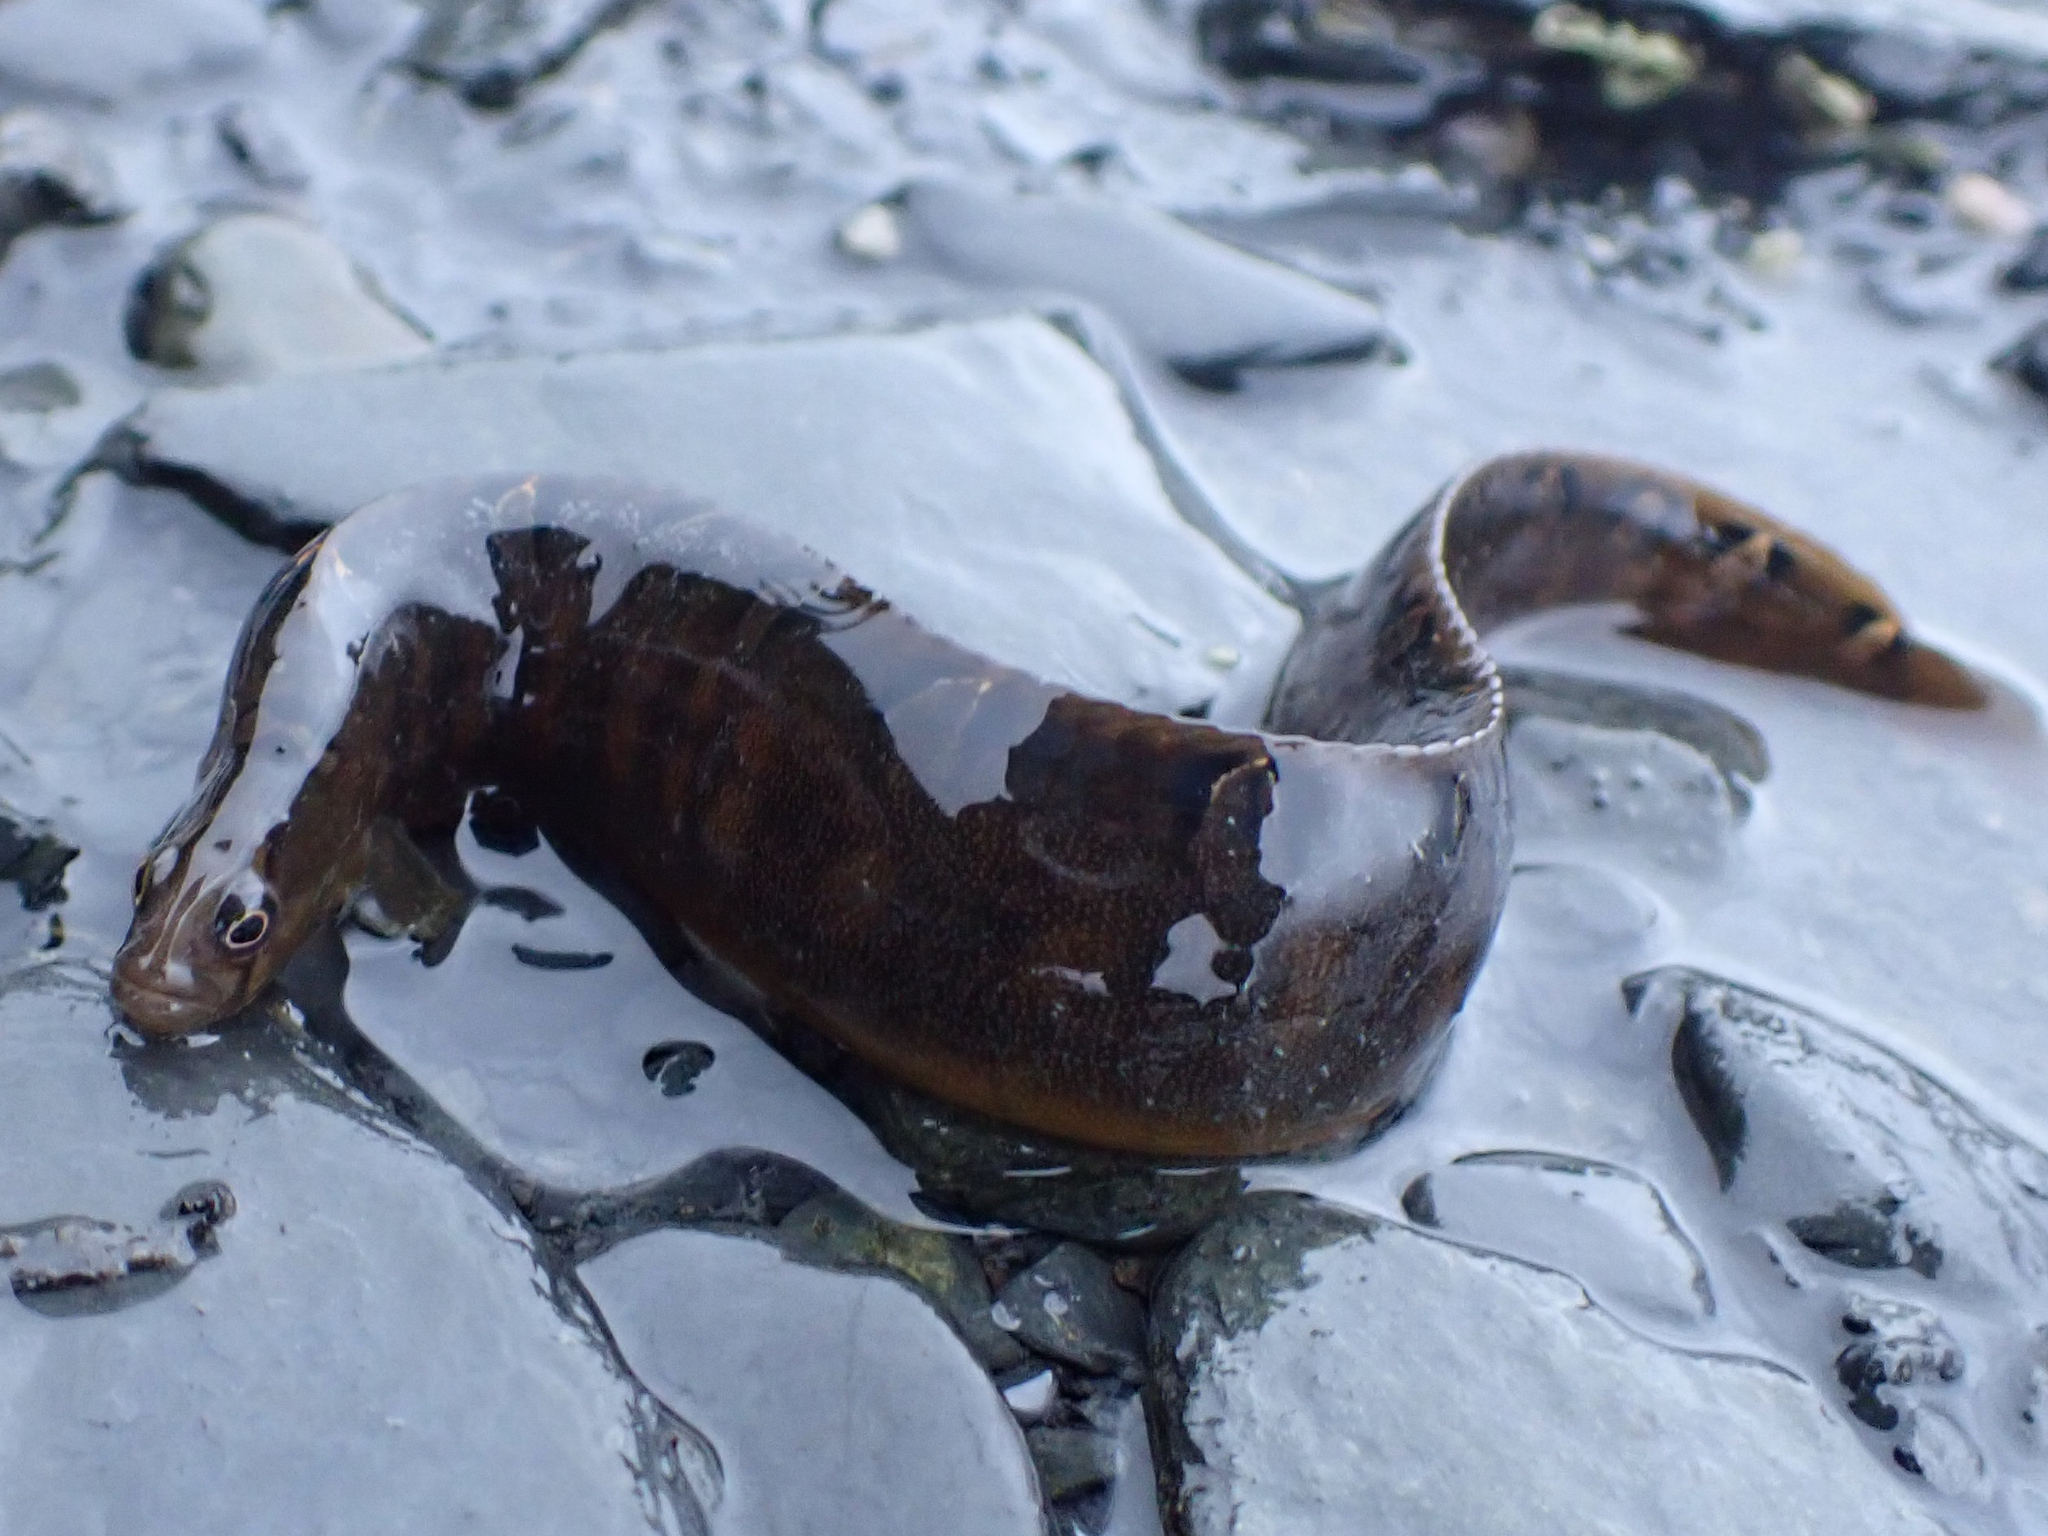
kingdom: Animalia
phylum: Chordata
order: Perciformes
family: Pholidae
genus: Pholis
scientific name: Pholis laeta
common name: Crescent gunnel
